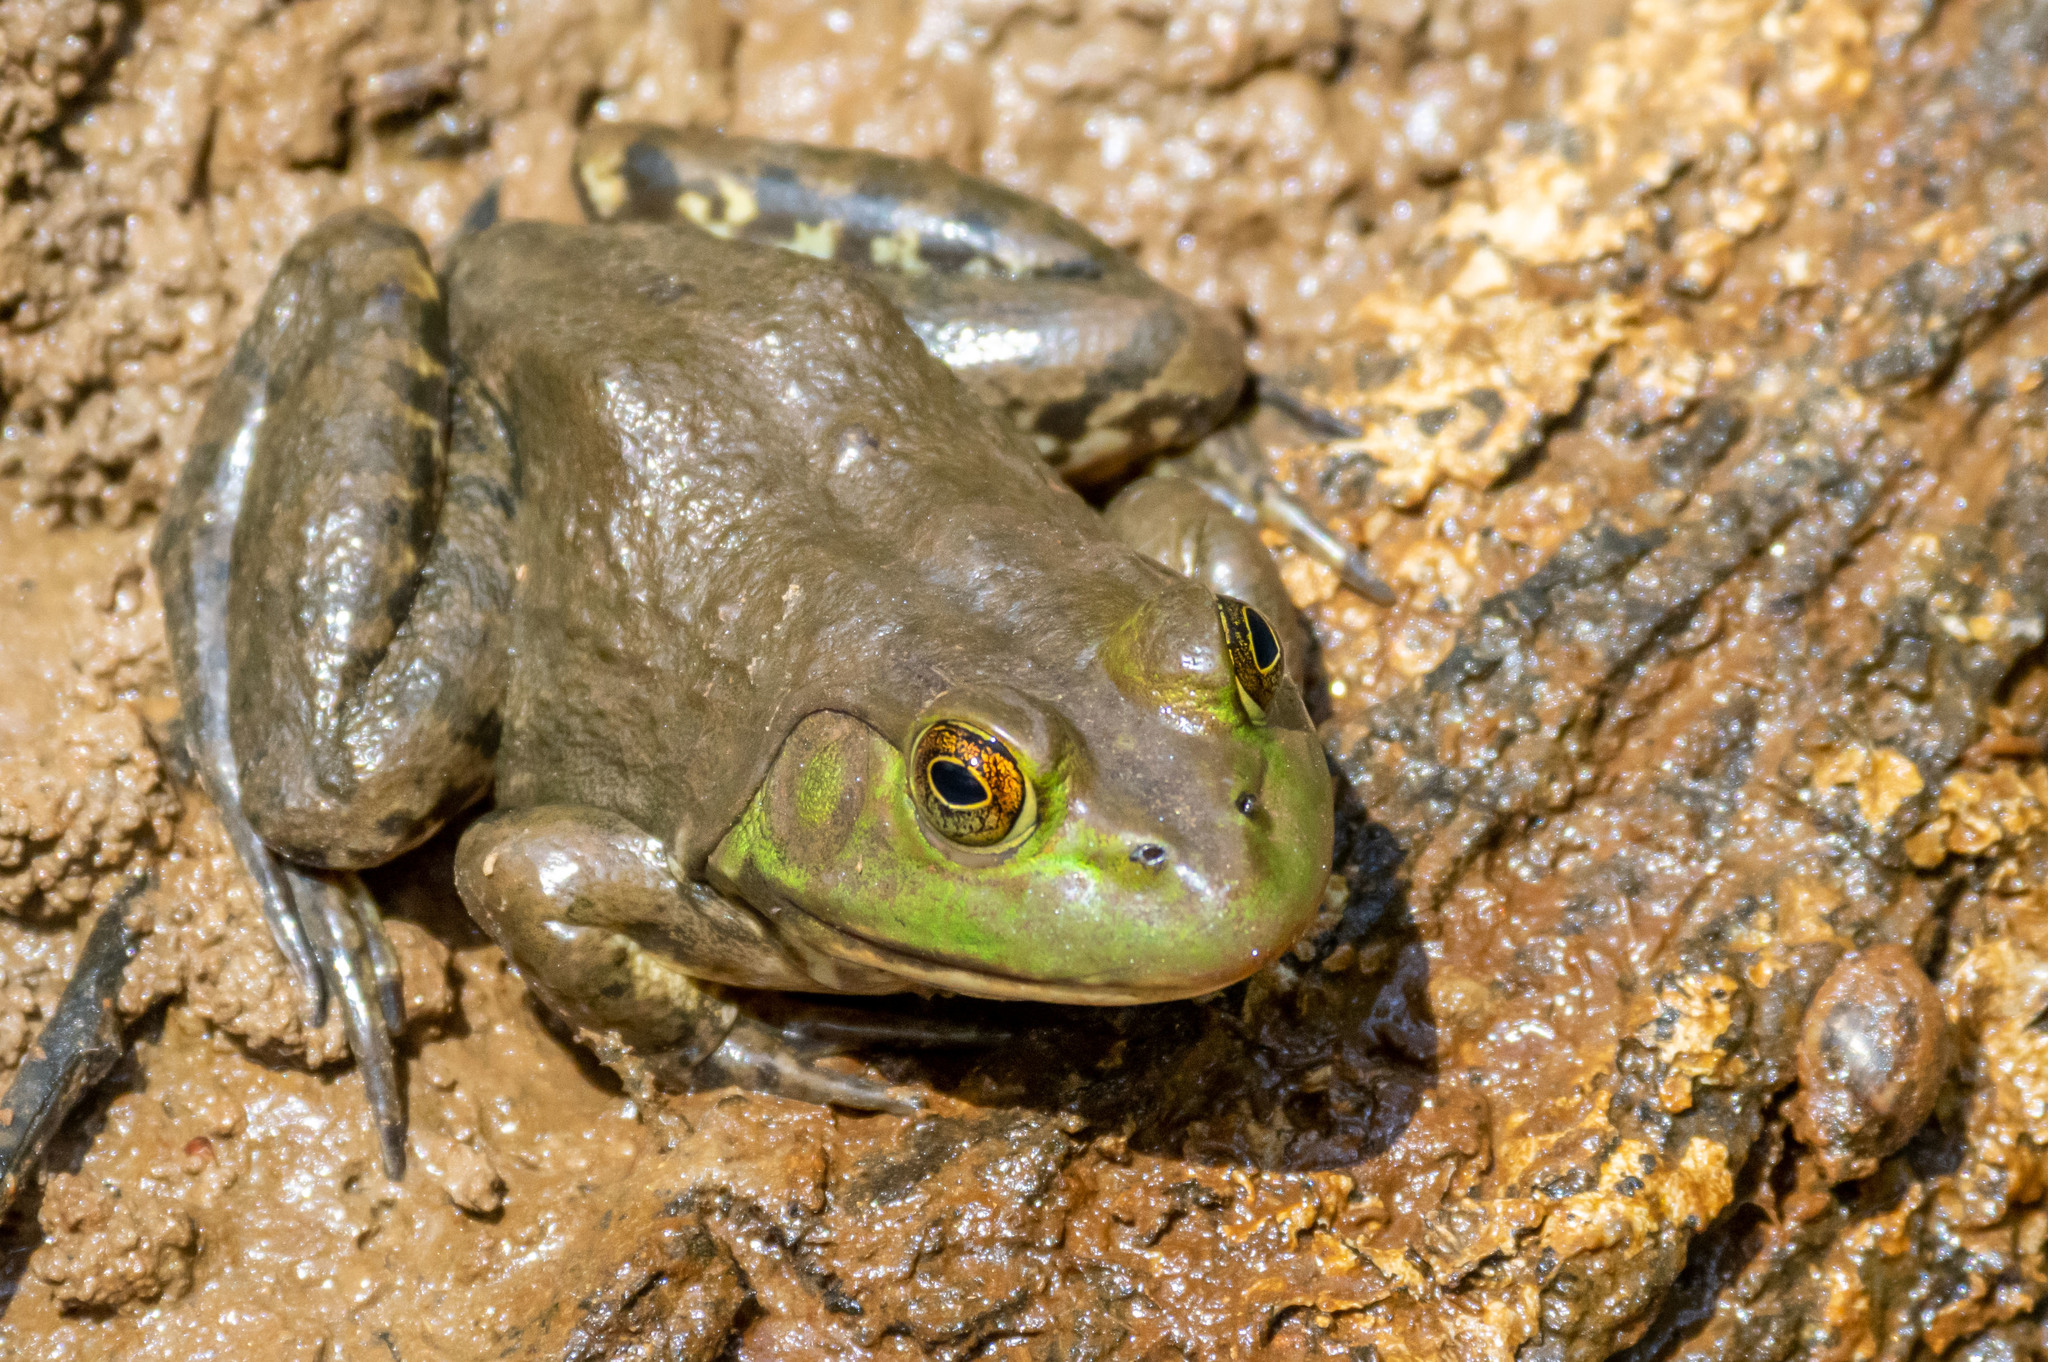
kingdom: Animalia
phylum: Chordata
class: Amphibia
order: Anura
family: Ranidae
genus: Lithobates
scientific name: Lithobates catesbeianus
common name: American bullfrog
